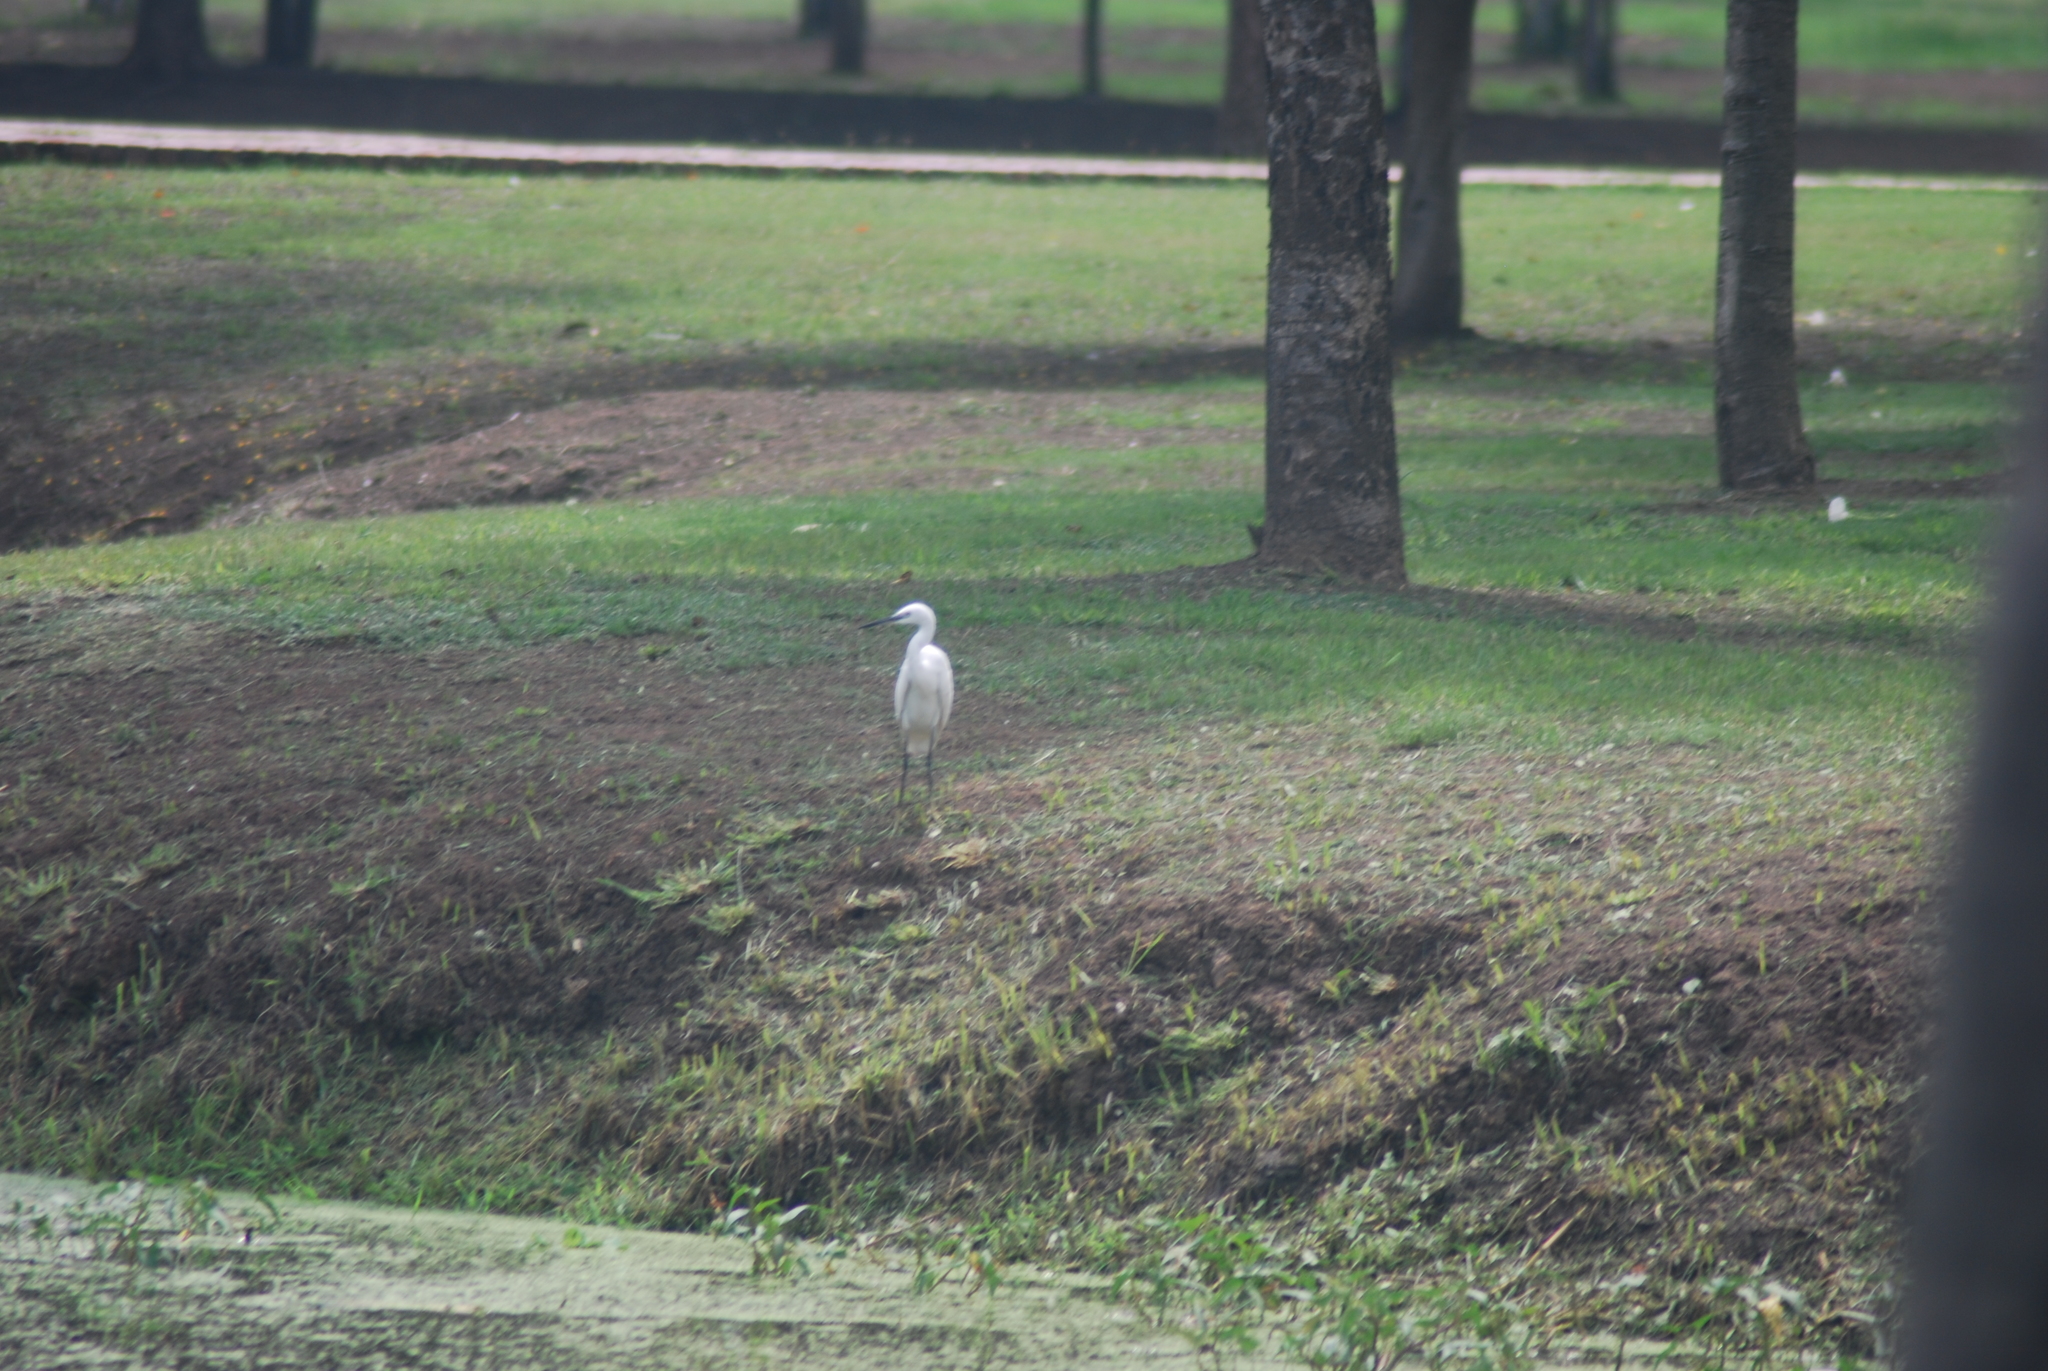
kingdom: Animalia
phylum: Chordata
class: Aves
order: Pelecaniformes
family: Ardeidae
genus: Egretta
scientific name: Egretta garzetta
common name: Little egret
